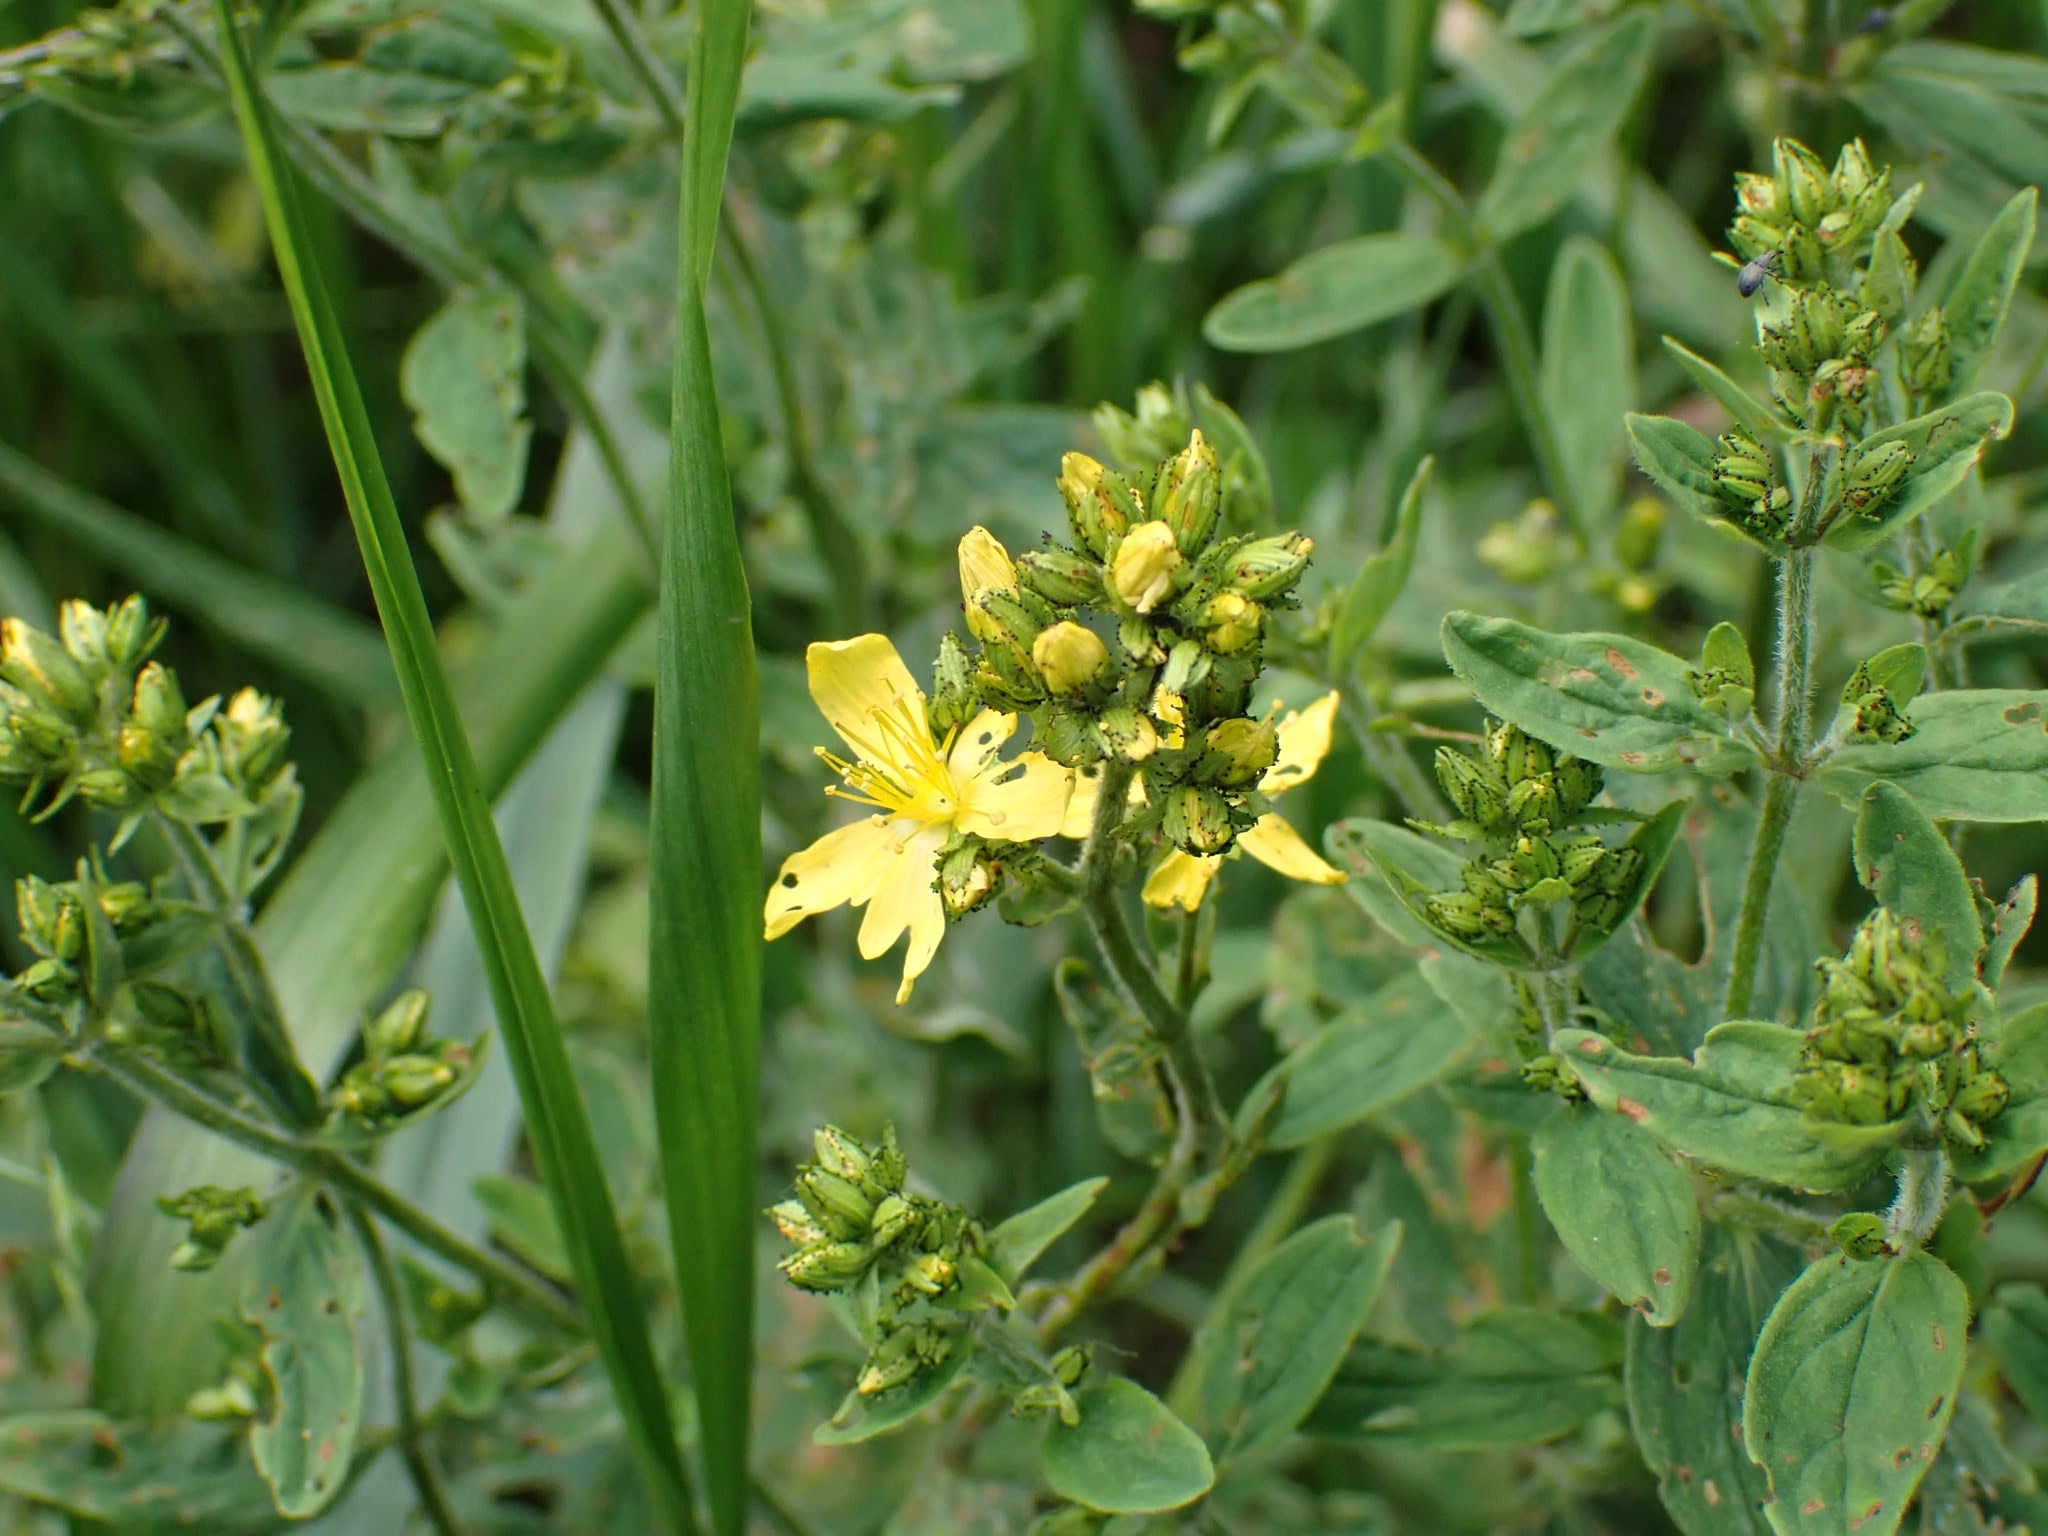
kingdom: Plantae
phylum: Tracheophyta
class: Magnoliopsida
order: Malpighiales
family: Hypericaceae
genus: Hypericum
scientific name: Hypericum hirsutum
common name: Hairy st. john's-wort
